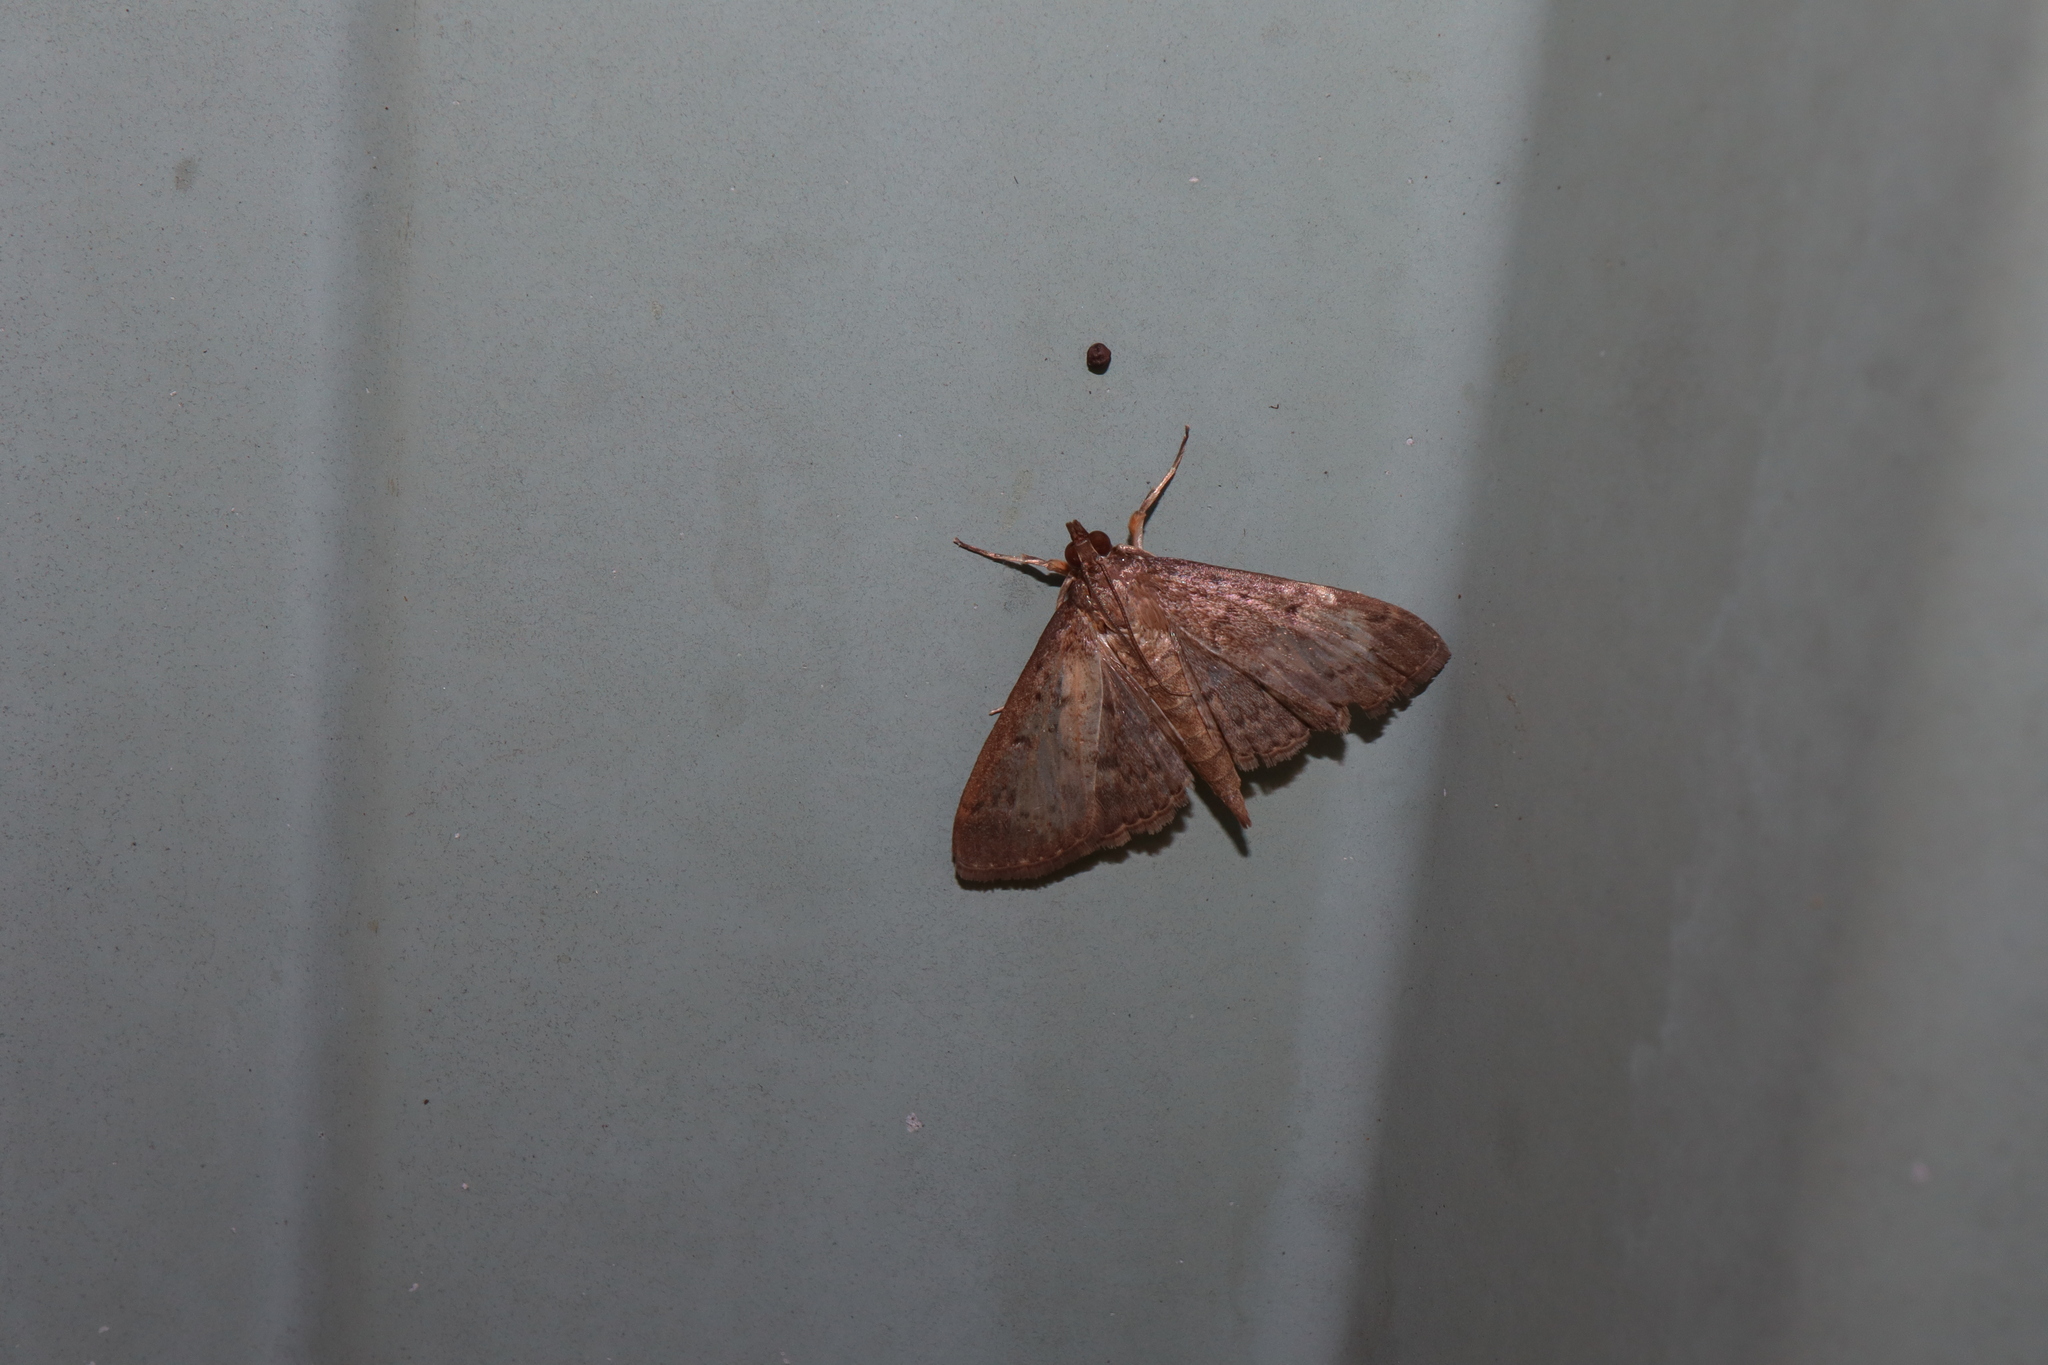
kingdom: Animalia
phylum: Arthropoda
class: Insecta
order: Lepidoptera
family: Crambidae
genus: Herpetogramma
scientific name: Herpetogramma licarsisalis
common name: Grass webworm
